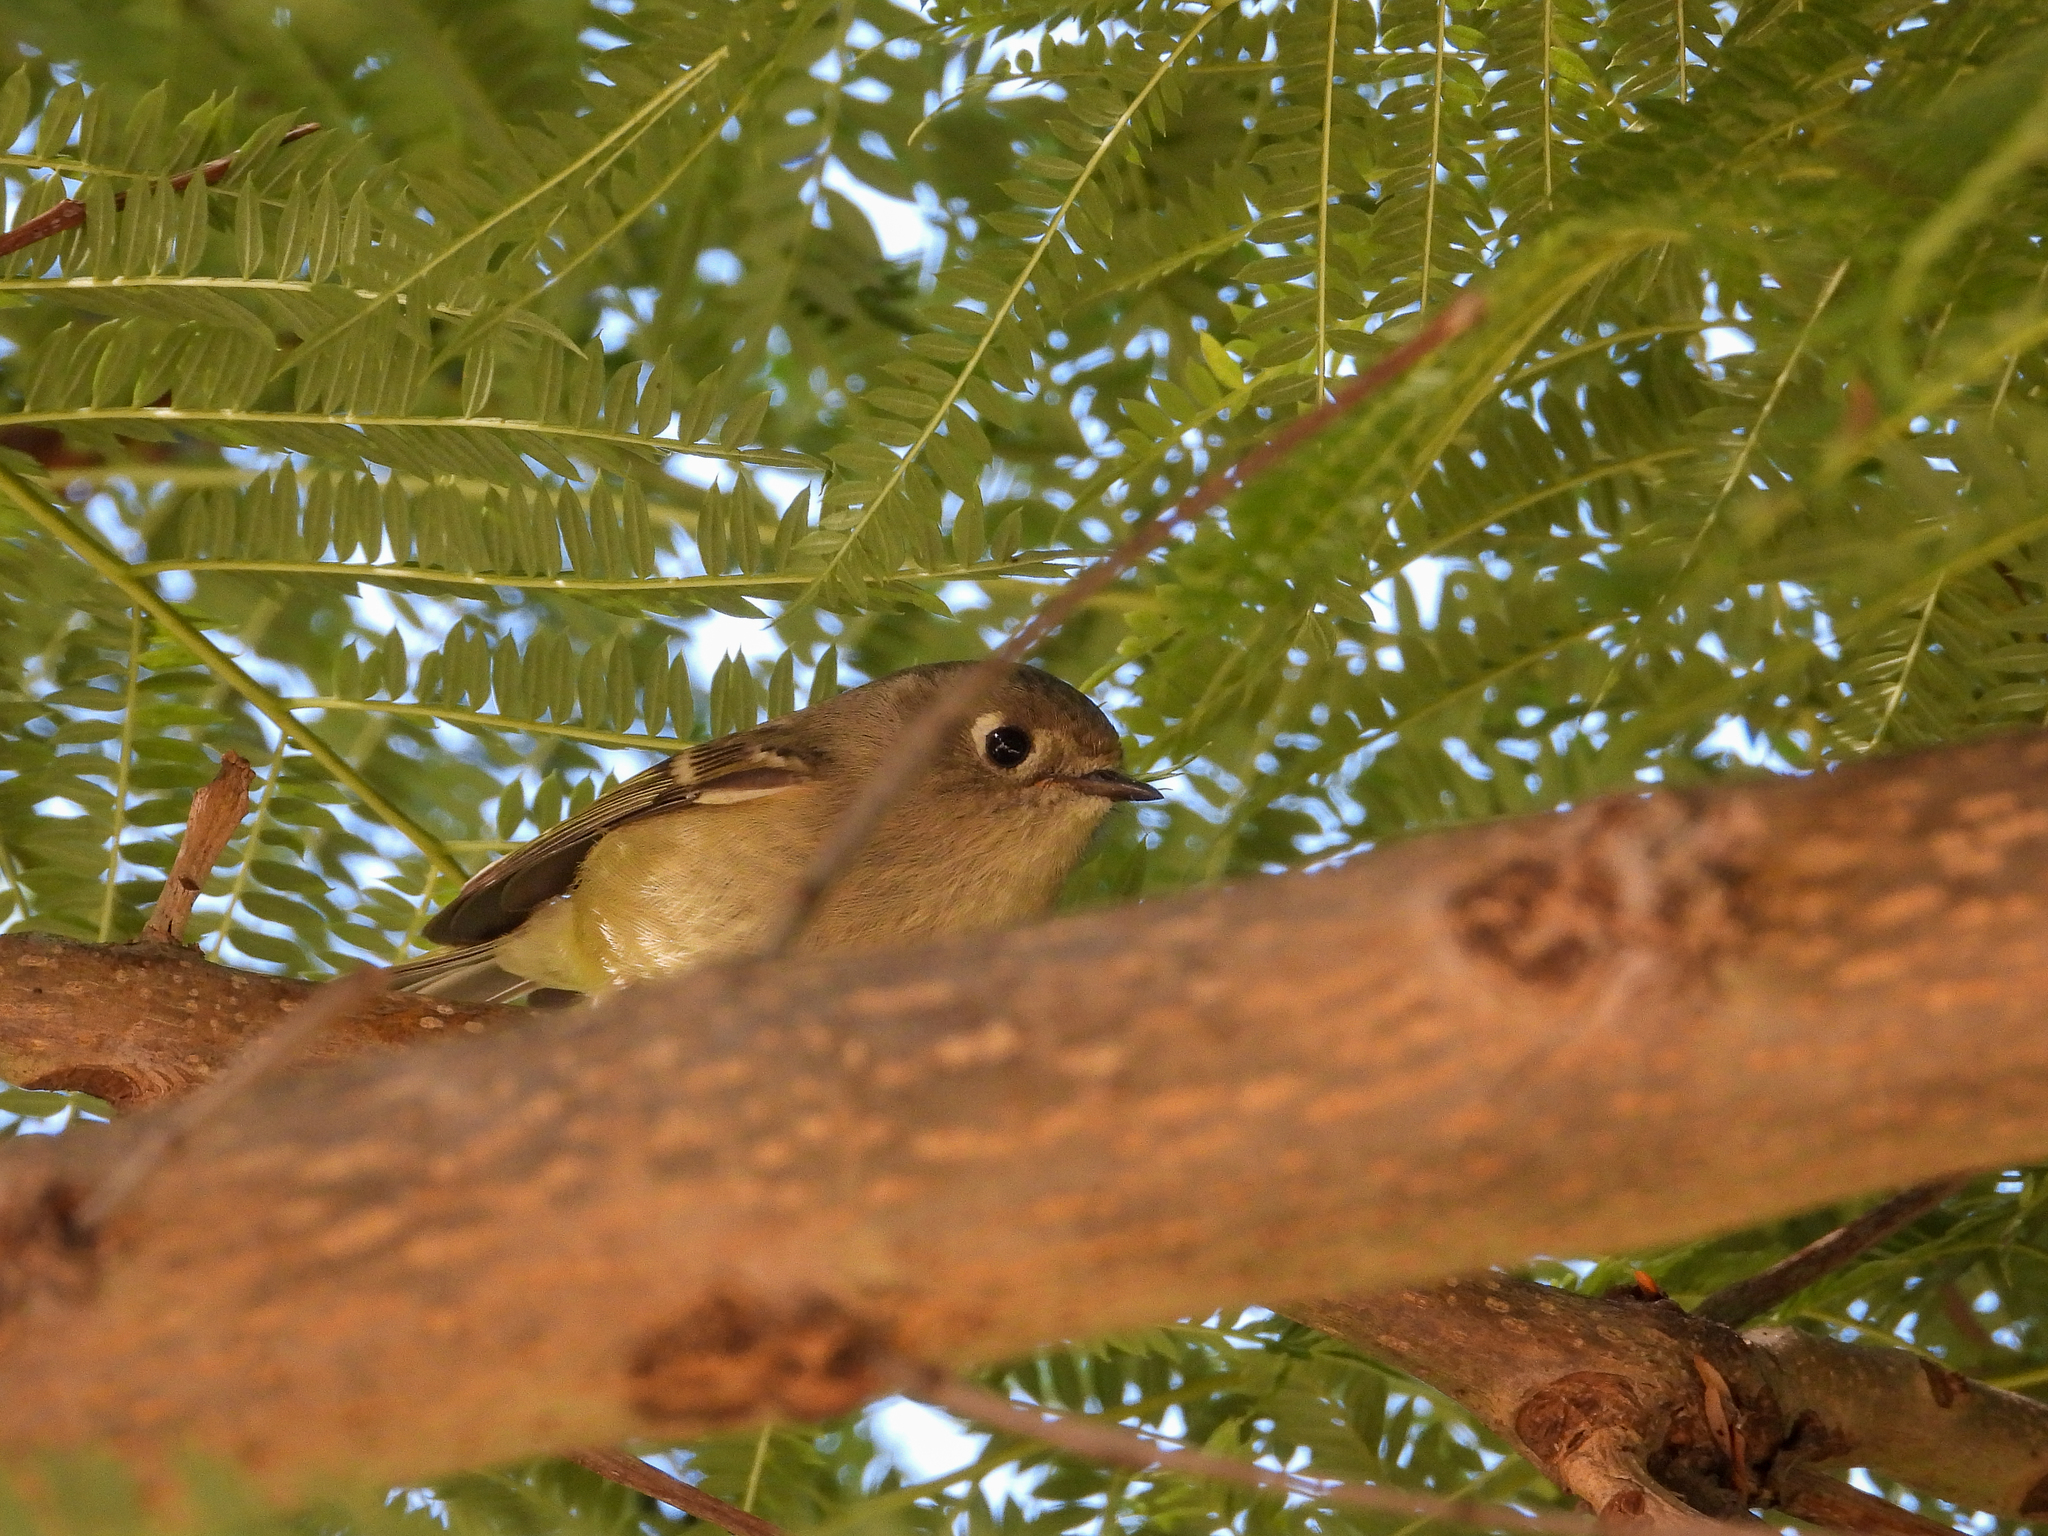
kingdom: Animalia
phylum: Chordata
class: Aves
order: Passeriformes
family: Regulidae
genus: Regulus
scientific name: Regulus calendula
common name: Ruby-crowned kinglet
